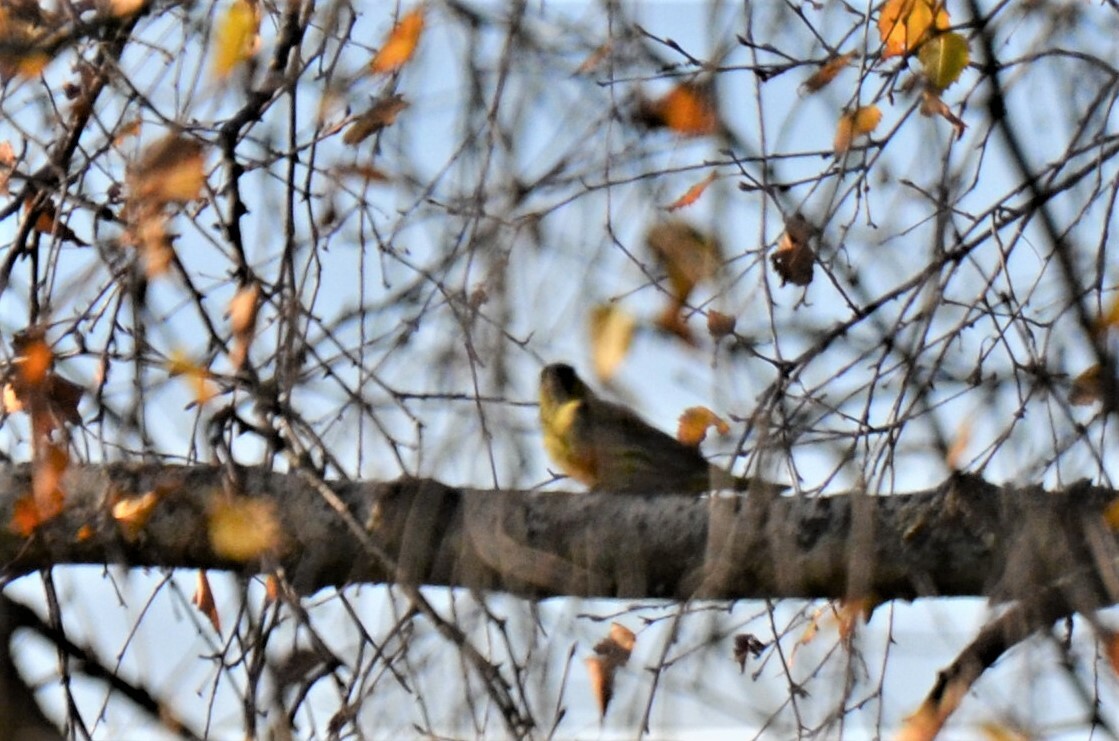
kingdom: Animalia
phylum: Chordata
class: Aves
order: Passeriformes
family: Fringillidae
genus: Spinus
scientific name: Spinus spinus
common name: Eurasian siskin
